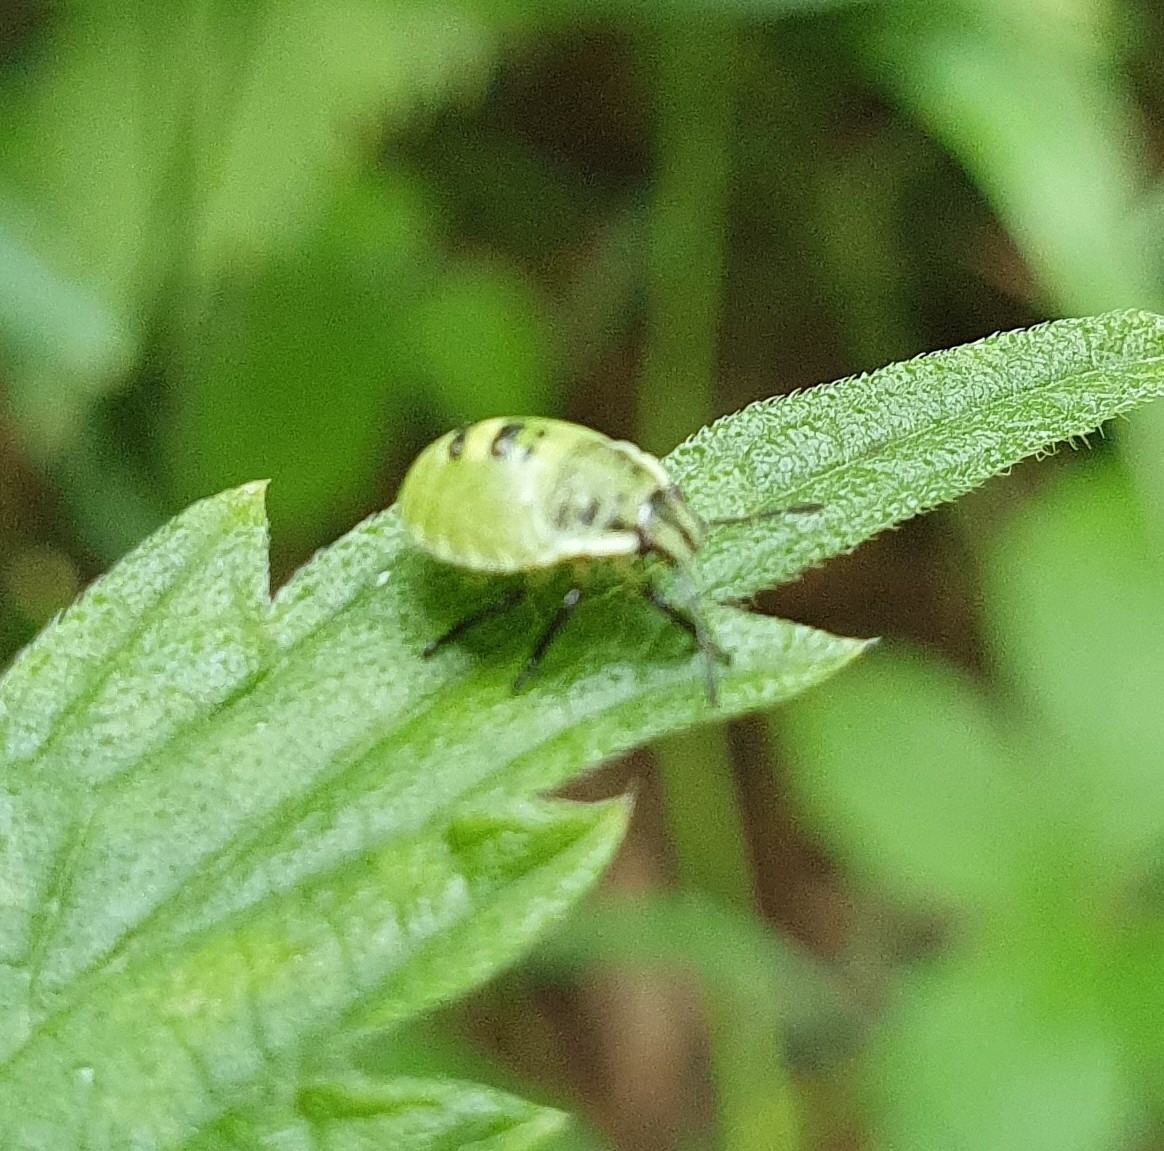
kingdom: Animalia
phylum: Arthropoda
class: Insecta
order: Hemiptera
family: Pentatomidae
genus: Palomena
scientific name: Palomena prasina
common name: Green shieldbug
